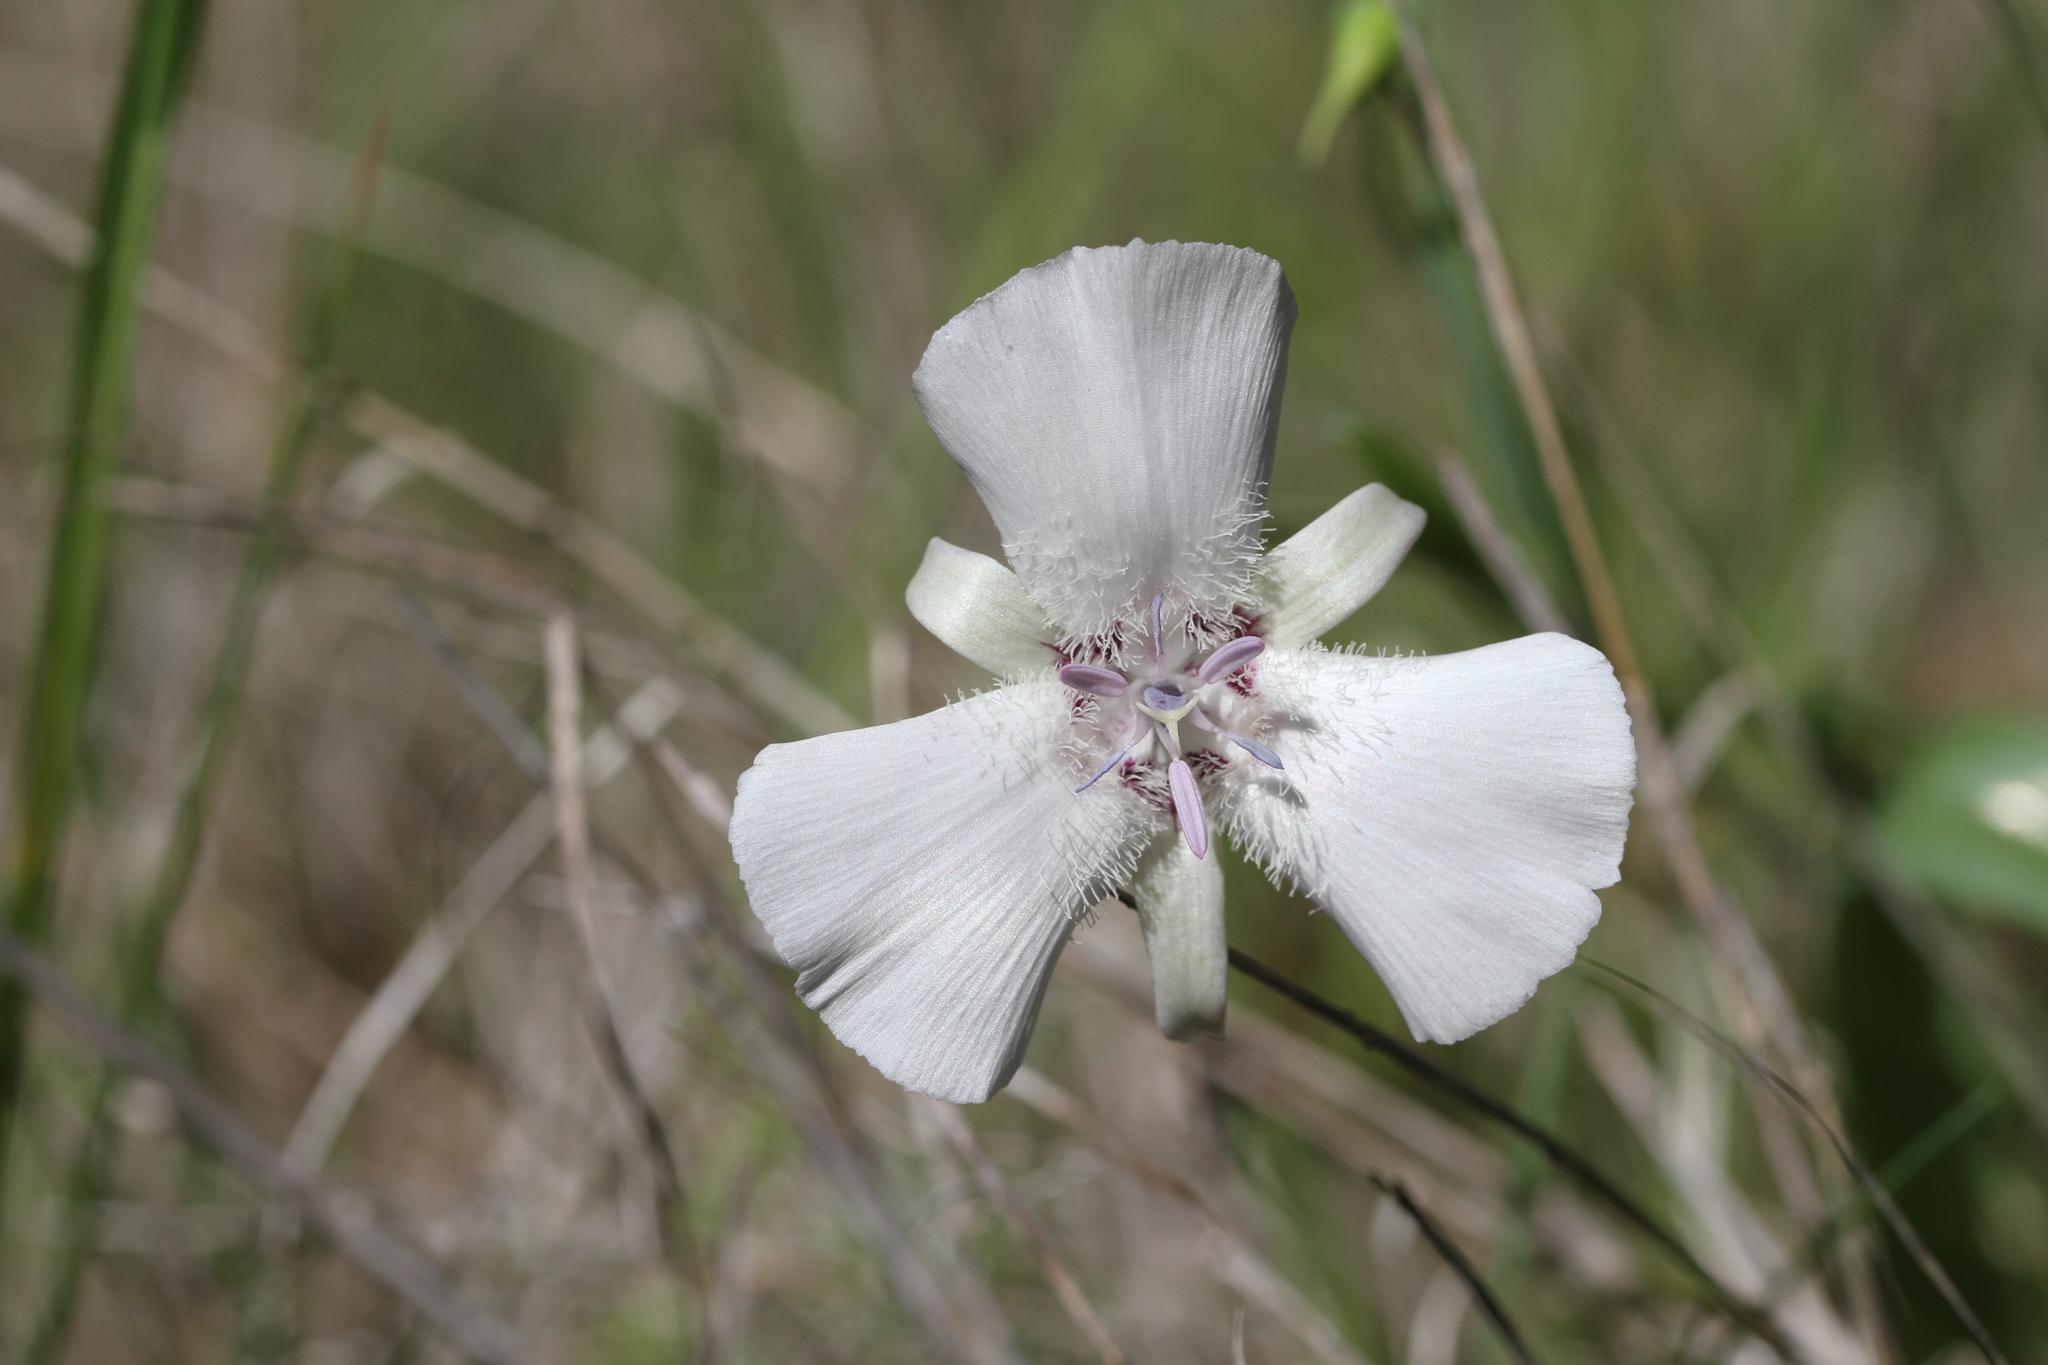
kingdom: Plantae
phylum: Tracheophyta
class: Liliopsida
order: Liliales
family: Liliaceae
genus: Calochortus
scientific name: Calochortus umbellatus
